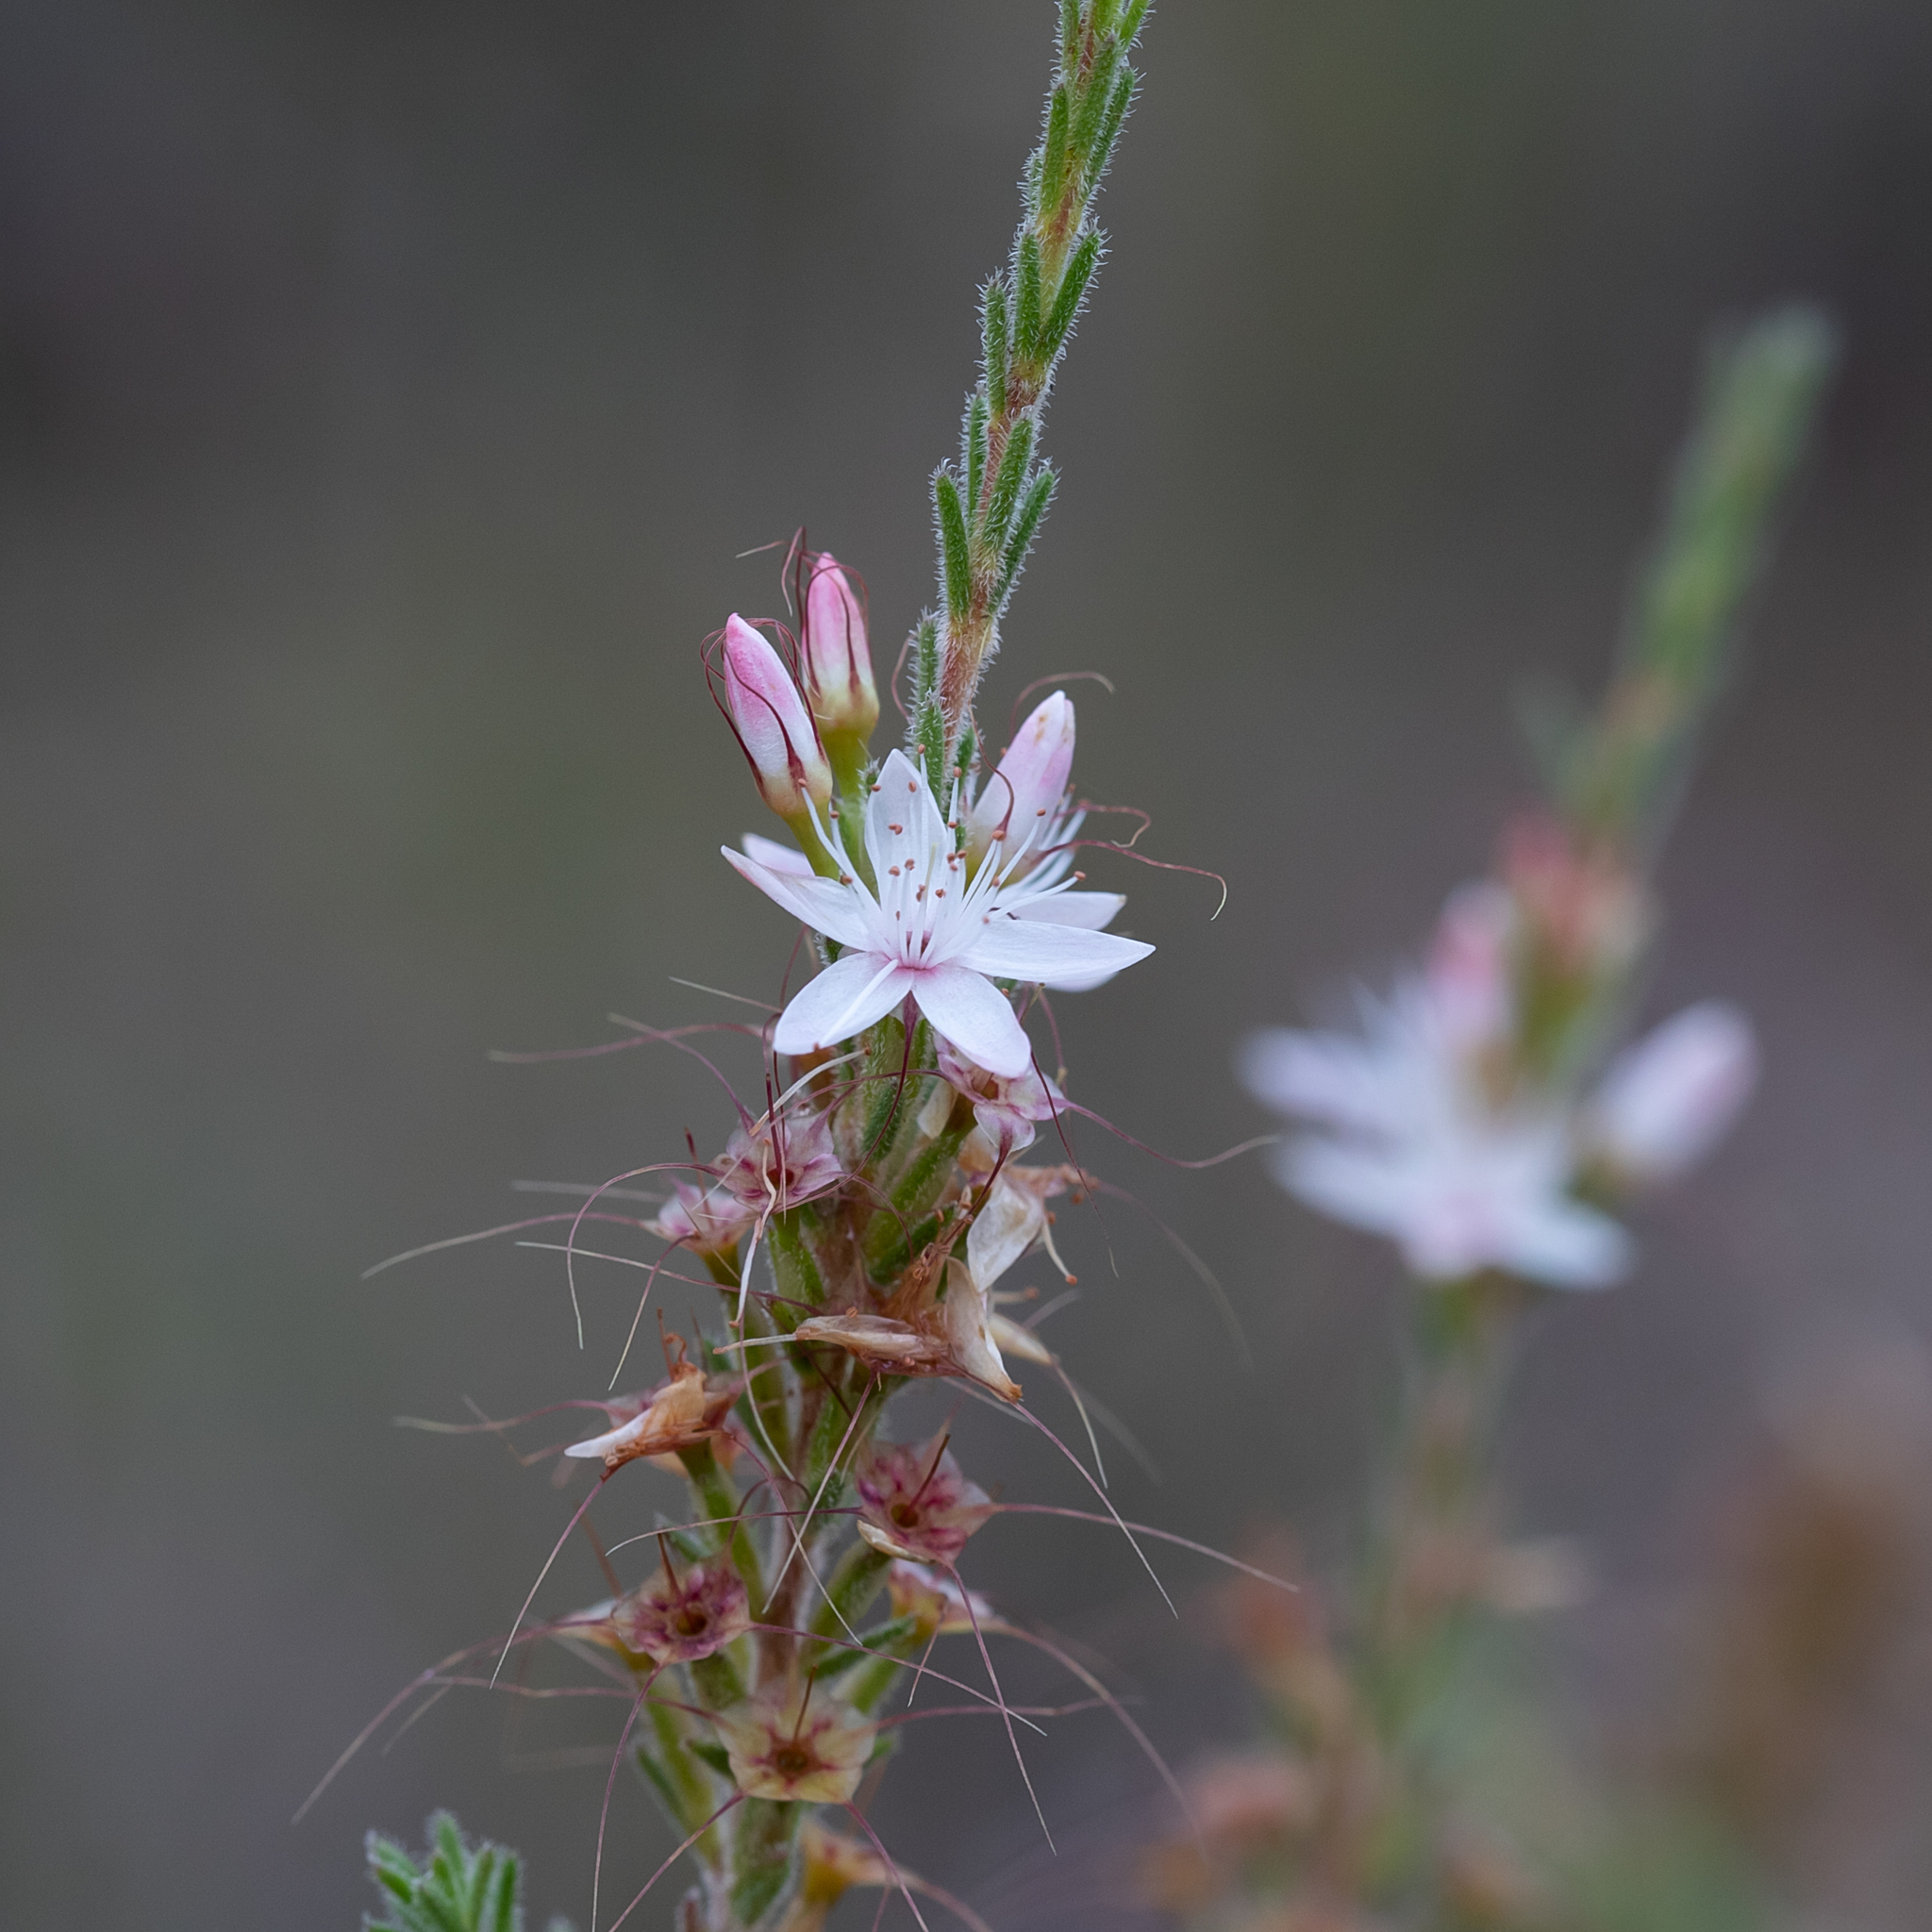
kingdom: Plantae
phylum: Tracheophyta
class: Magnoliopsida
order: Myrtales
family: Myrtaceae
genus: Calytrix
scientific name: Calytrix tetragona
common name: Common fringe myrtle
